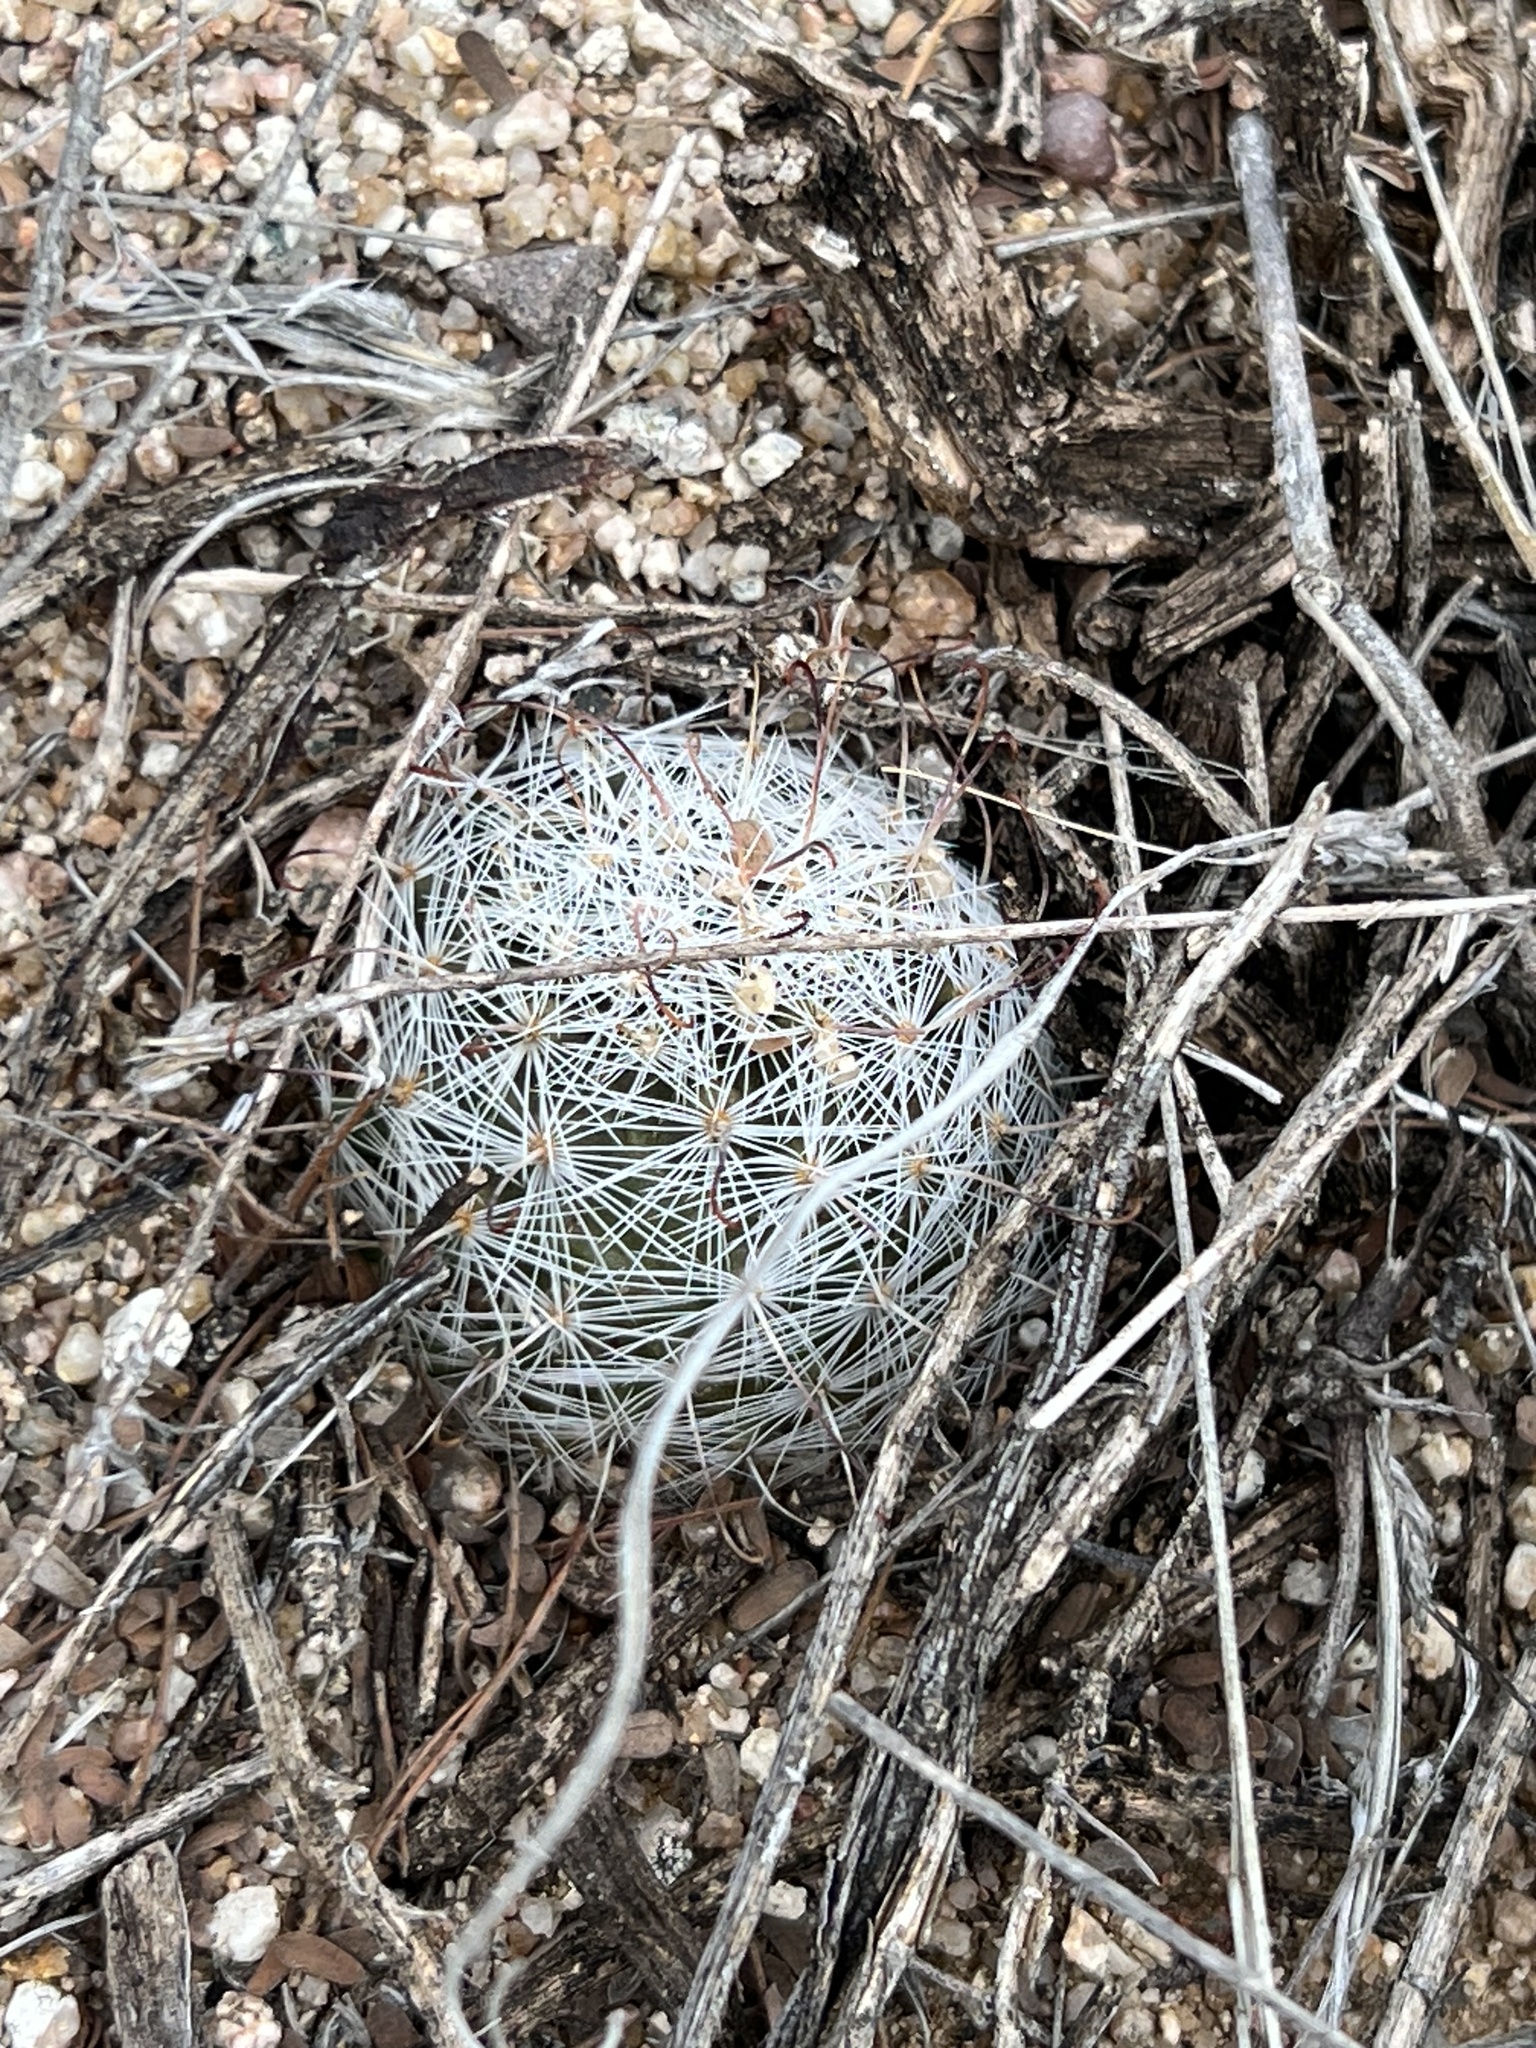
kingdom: Plantae
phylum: Tracheophyta
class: Magnoliopsida
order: Caryophyllales
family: Cactaceae
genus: Cochemiea
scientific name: Cochemiea grahamii
